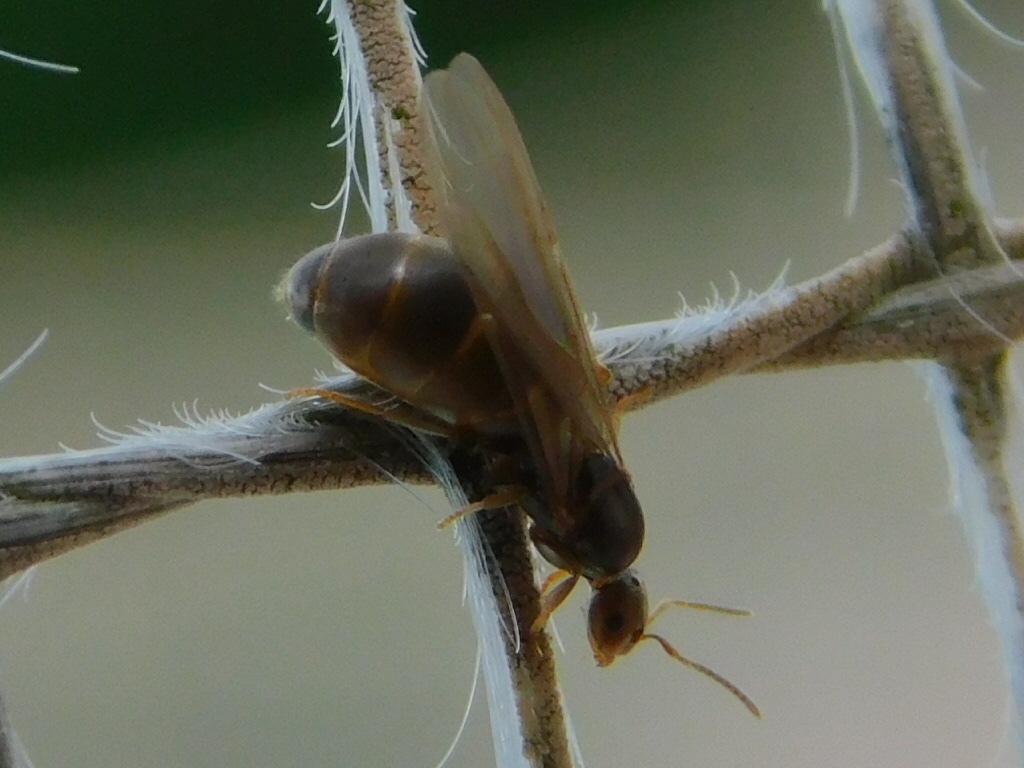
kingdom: Animalia
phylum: Arthropoda
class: Insecta
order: Hymenoptera
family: Formicidae
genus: Brachymyrmex
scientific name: Brachymyrmex obscurior
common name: Obscure rover ant
